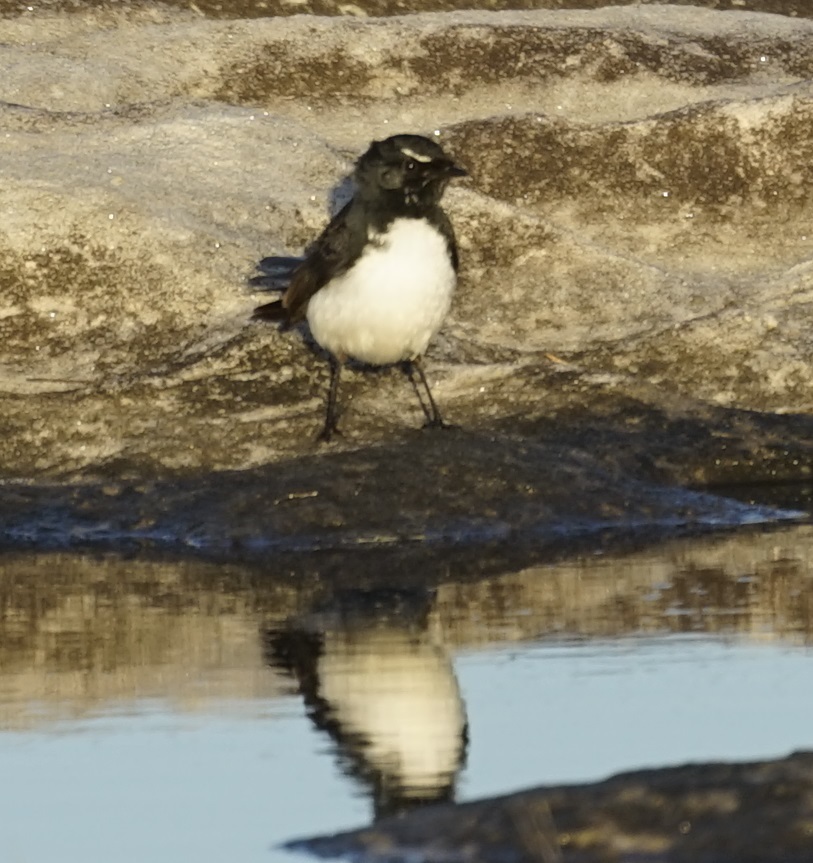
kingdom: Animalia
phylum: Chordata
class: Aves
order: Passeriformes
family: Rhipiduridae
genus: Rhipidura
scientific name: Rhipidura leucophrys
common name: Willie wagtail
